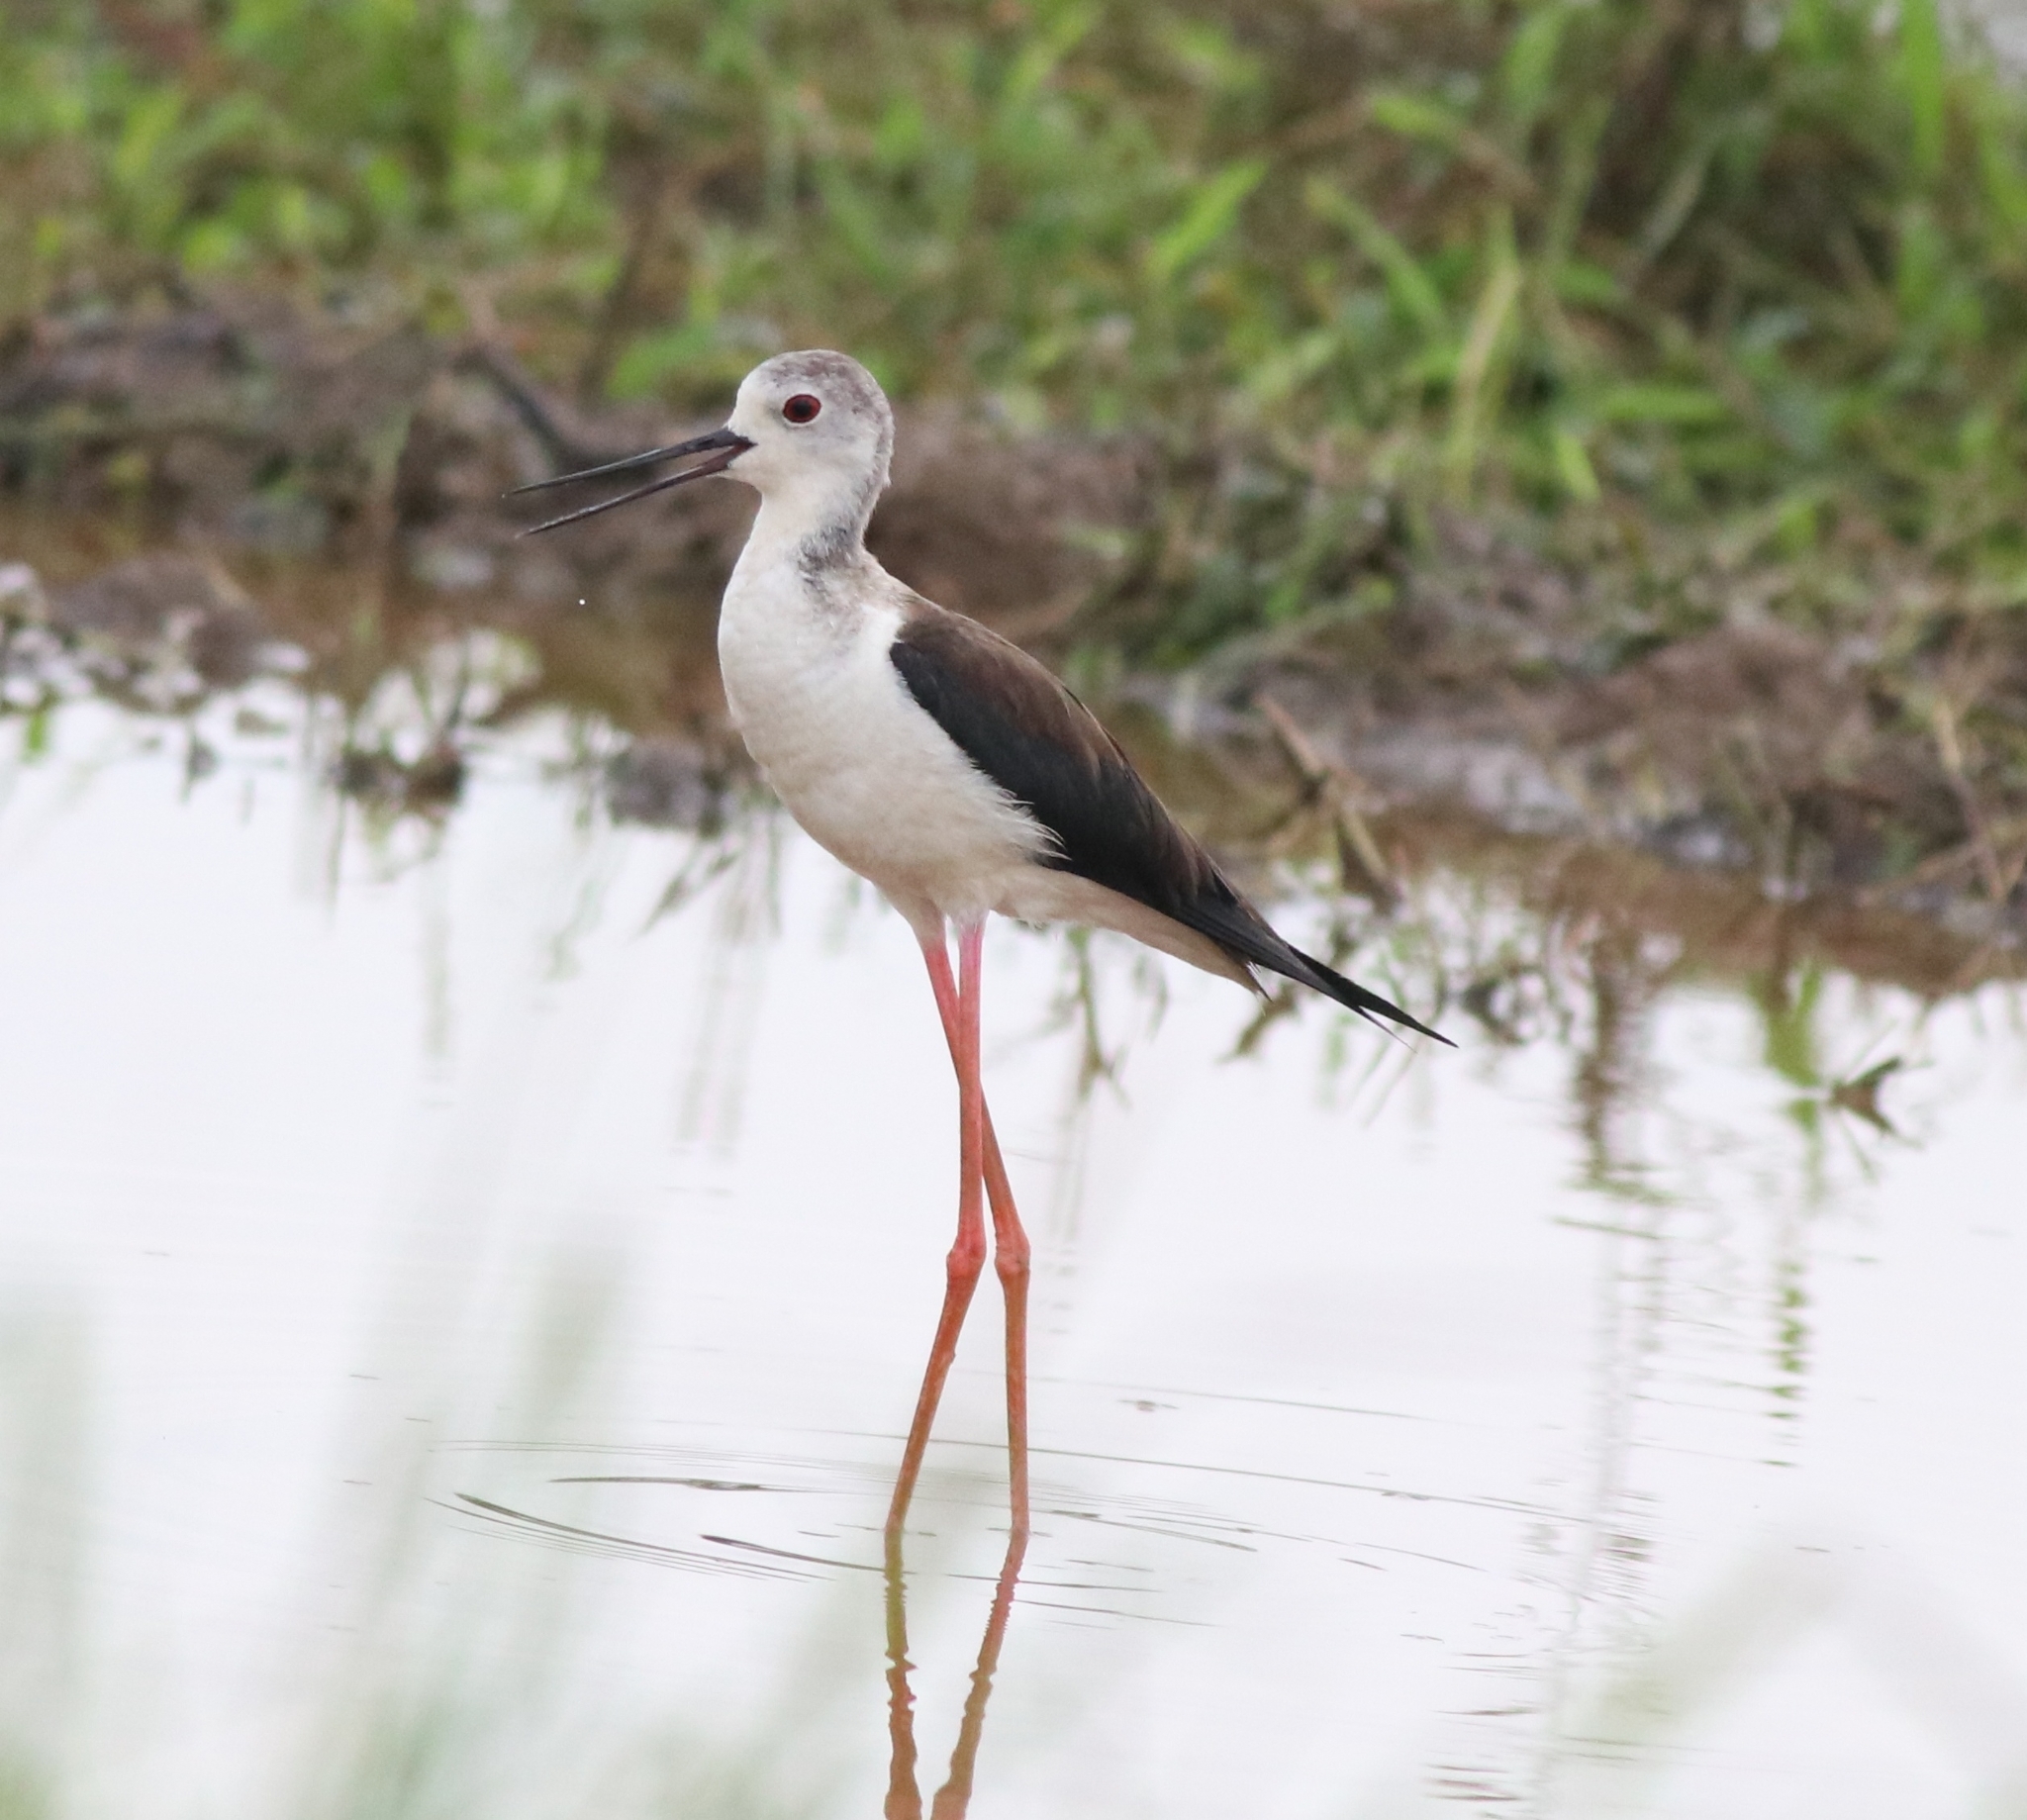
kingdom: Animalia
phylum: Chordata
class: Aves
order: Charadriiformes
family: Recurvirostridae
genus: Himantopus
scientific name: Himantopus himantopus
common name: Black-winged stilt
